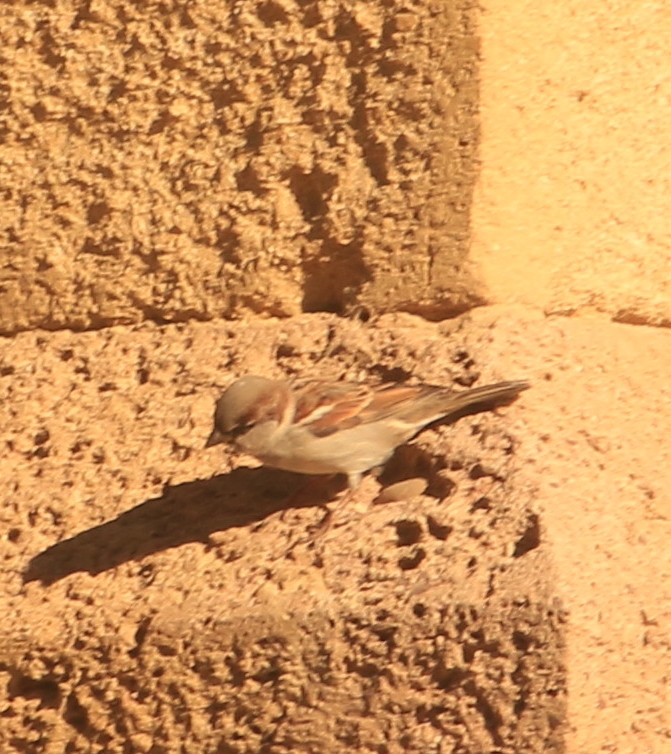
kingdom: Animalia
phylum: Chordata
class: Aves
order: Passeriformes
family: Passeridae
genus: Passer
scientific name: Passer domesticus
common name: House sparrow
